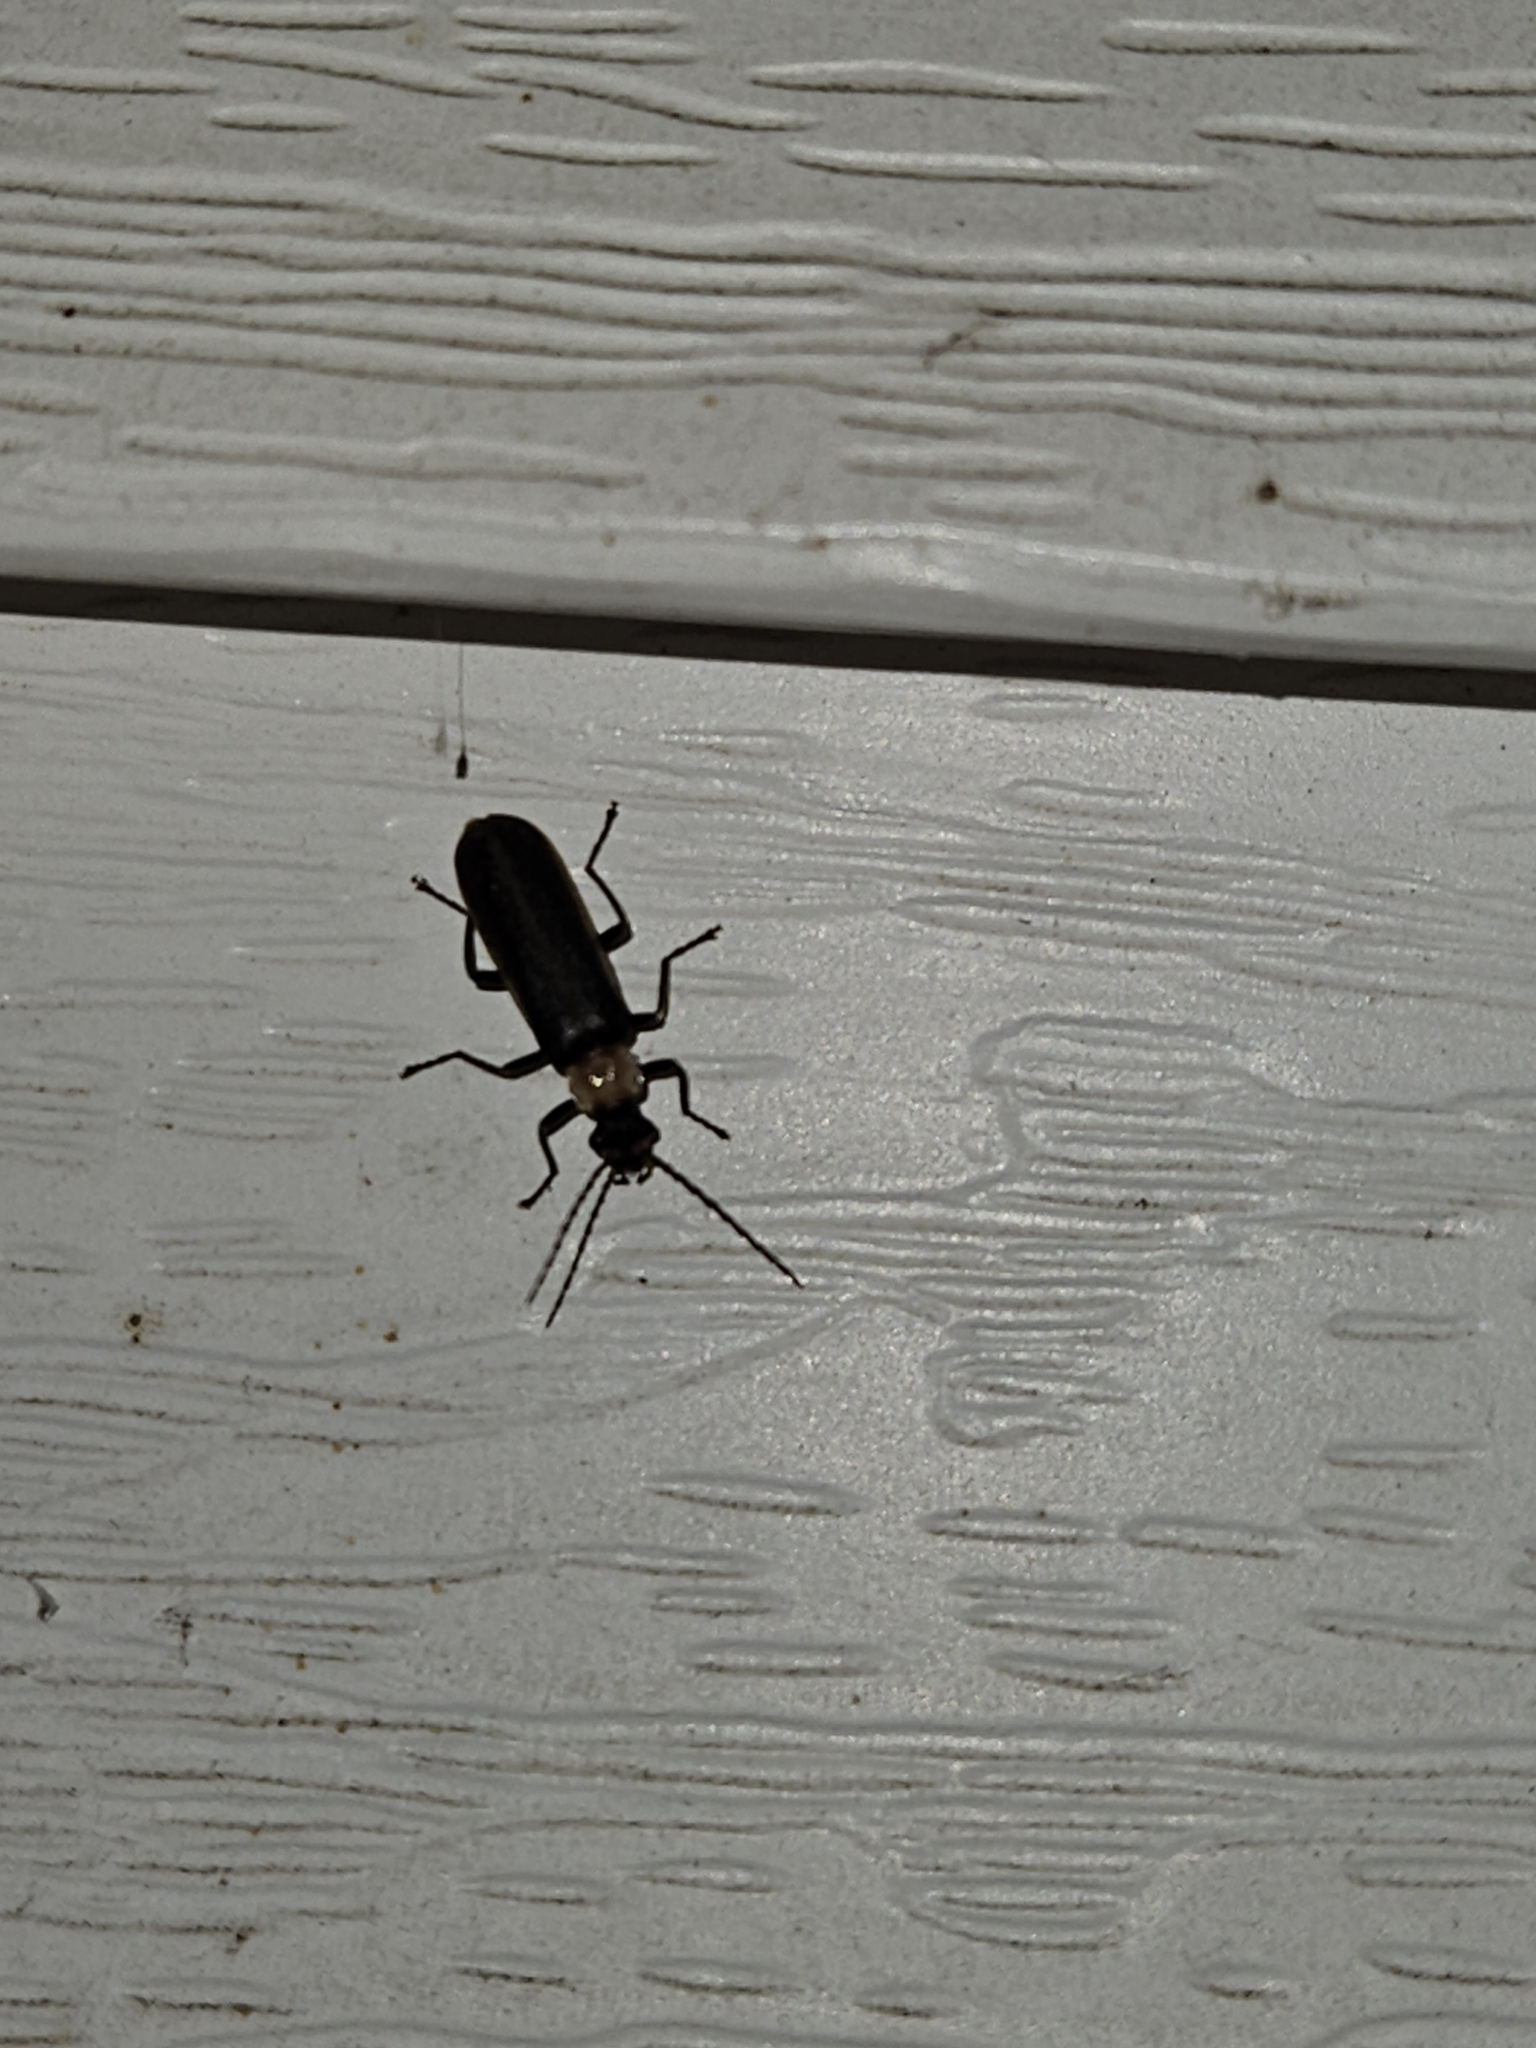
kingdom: Animalia
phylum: Arthropoda
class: Insecta
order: Coleoptera
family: Cantharidae
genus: Podabrus
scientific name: Podabrus flavicollis
